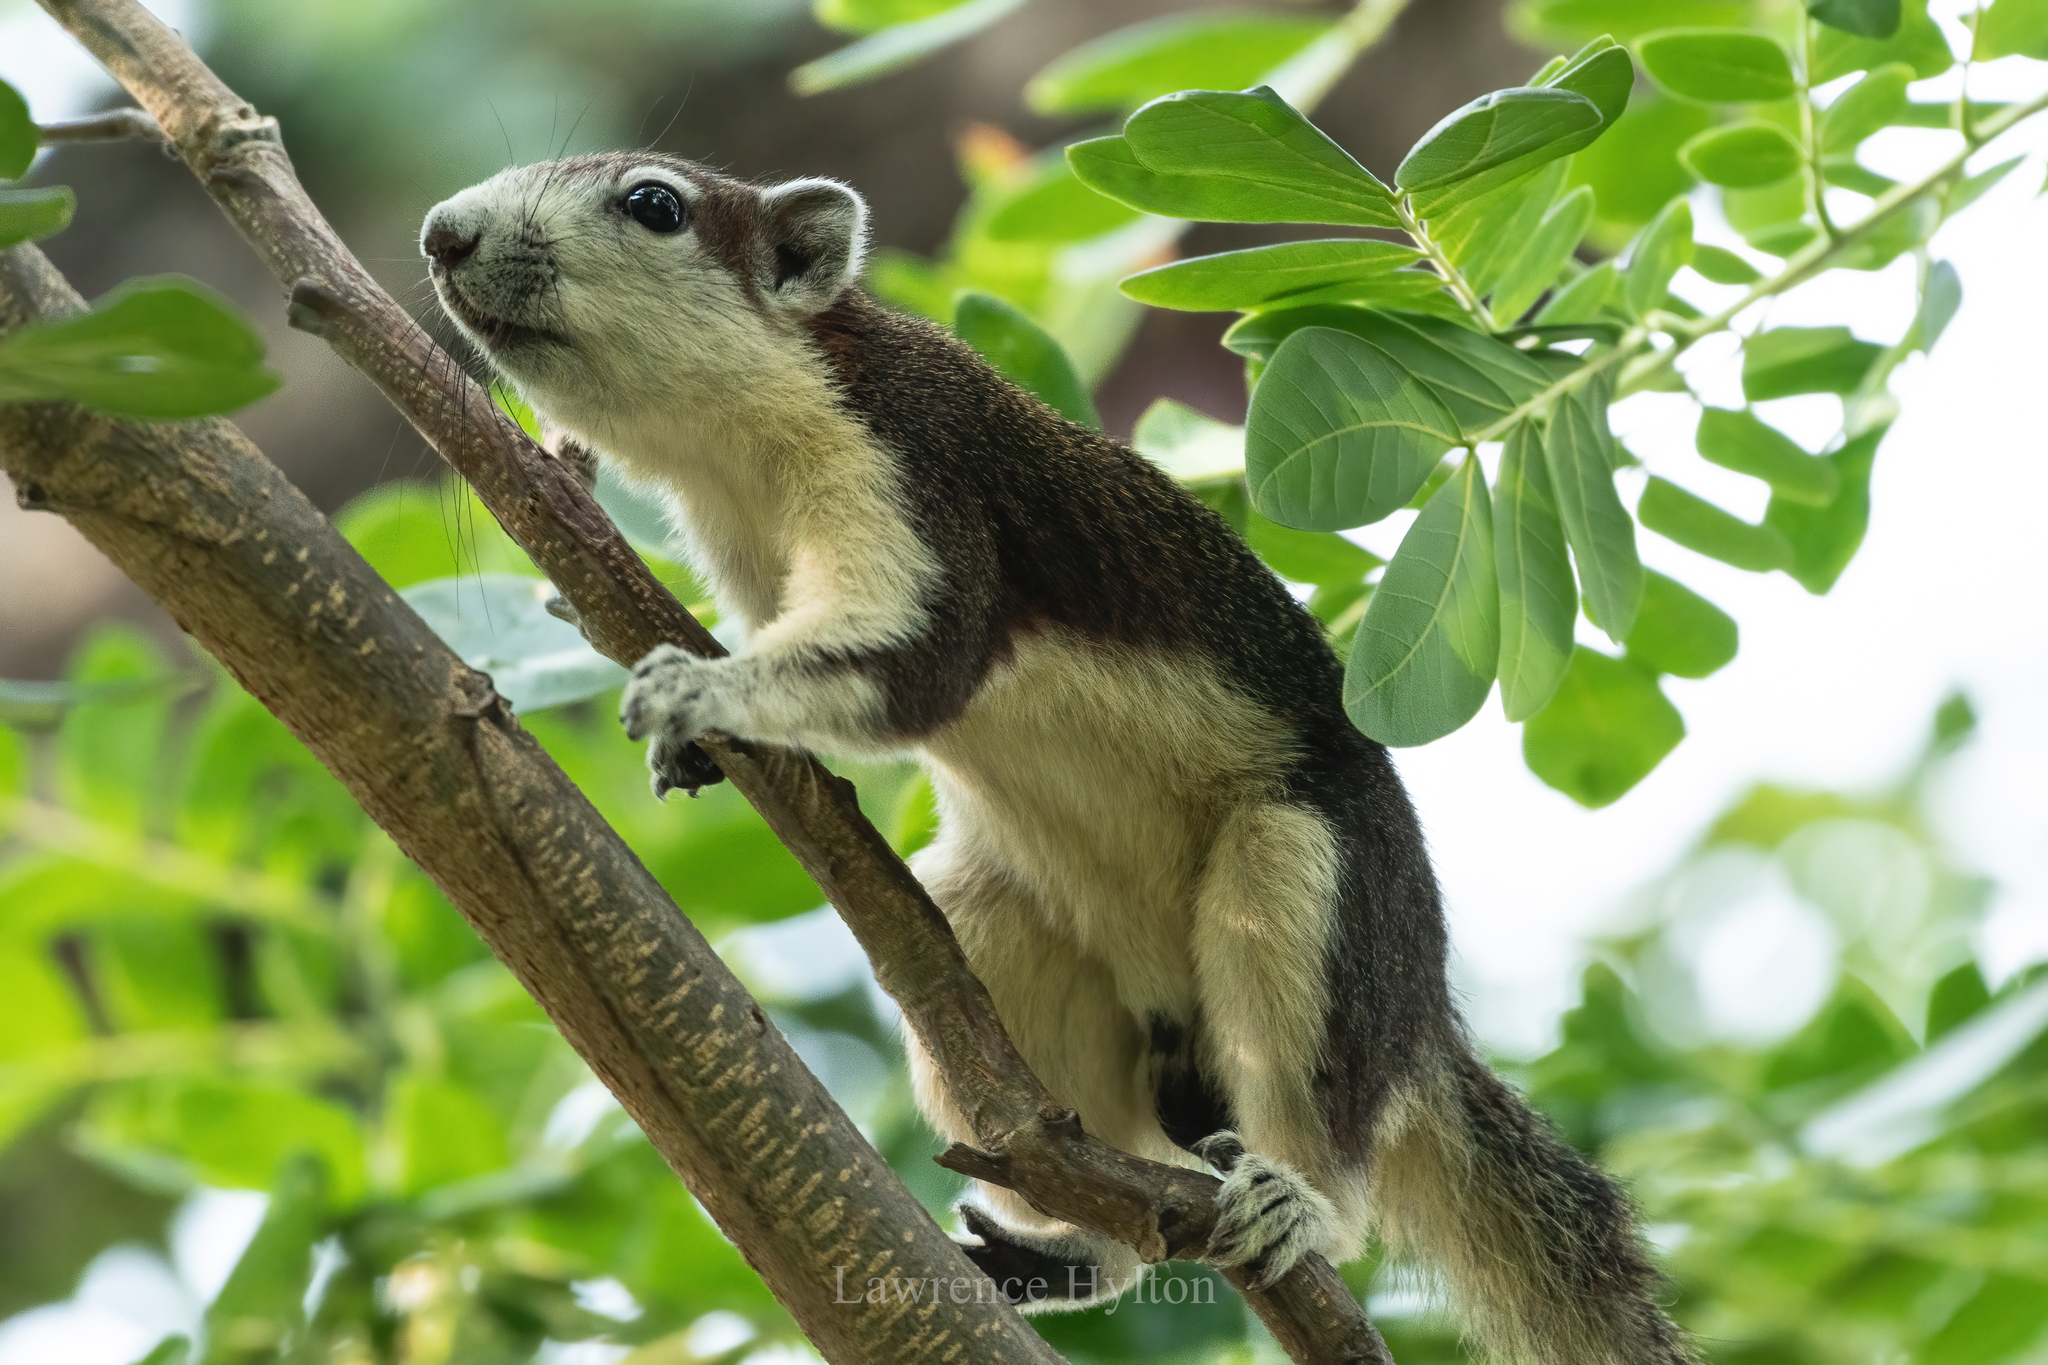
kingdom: Animalia
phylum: Chordata
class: Mammalia
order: Rodentia
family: Sciuridae
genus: Callosciurus
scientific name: Callosciurus finlaysonii
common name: Finlayson's squirrel
